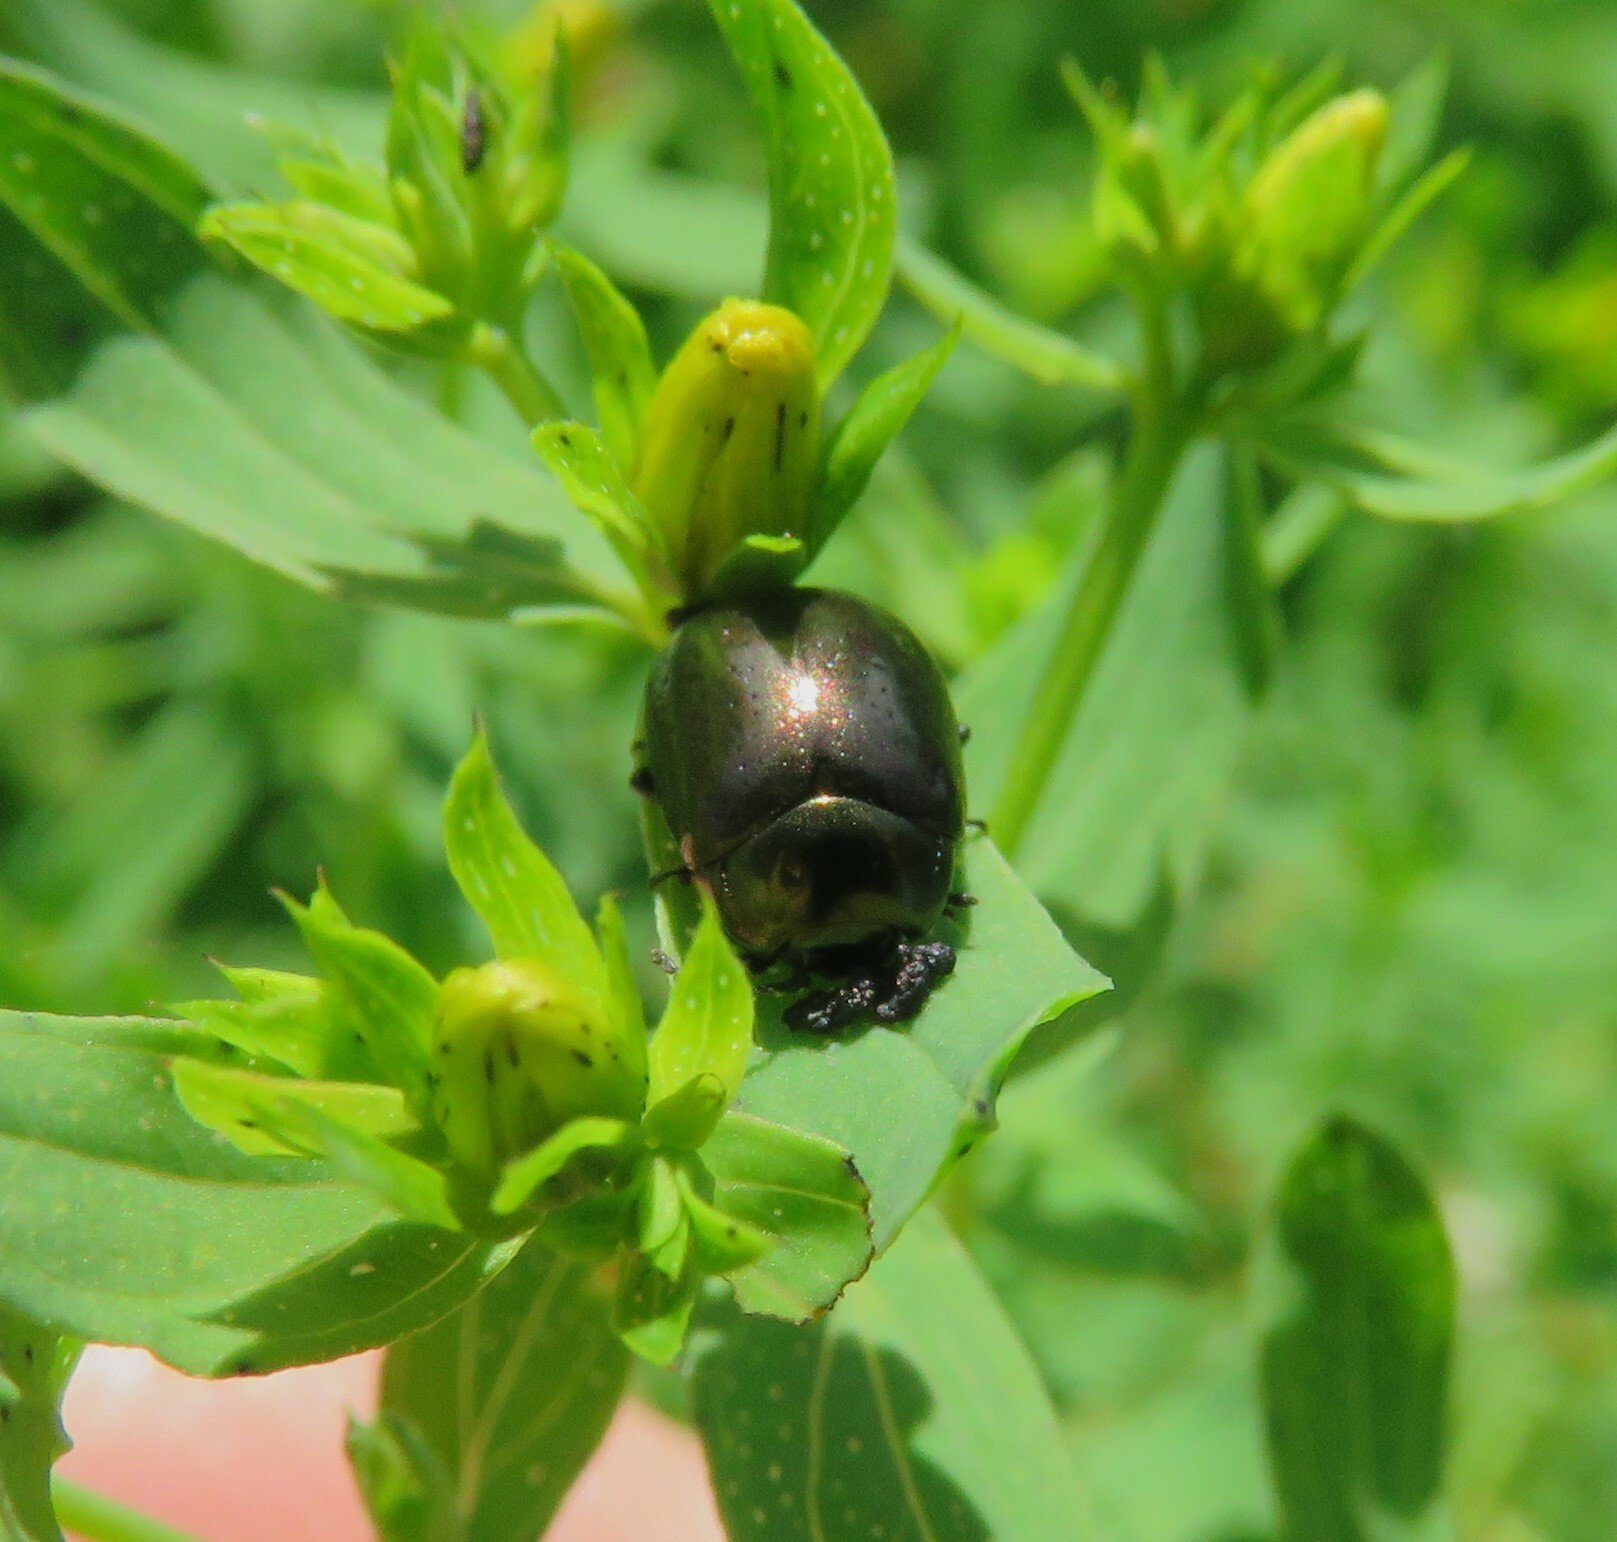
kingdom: Animalia
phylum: Arthropoda
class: Insecta
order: Coleoptera
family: Chrysomelidae
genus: Chrysolina
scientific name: Chrysolina hyperici
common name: St. johnswort beetle
